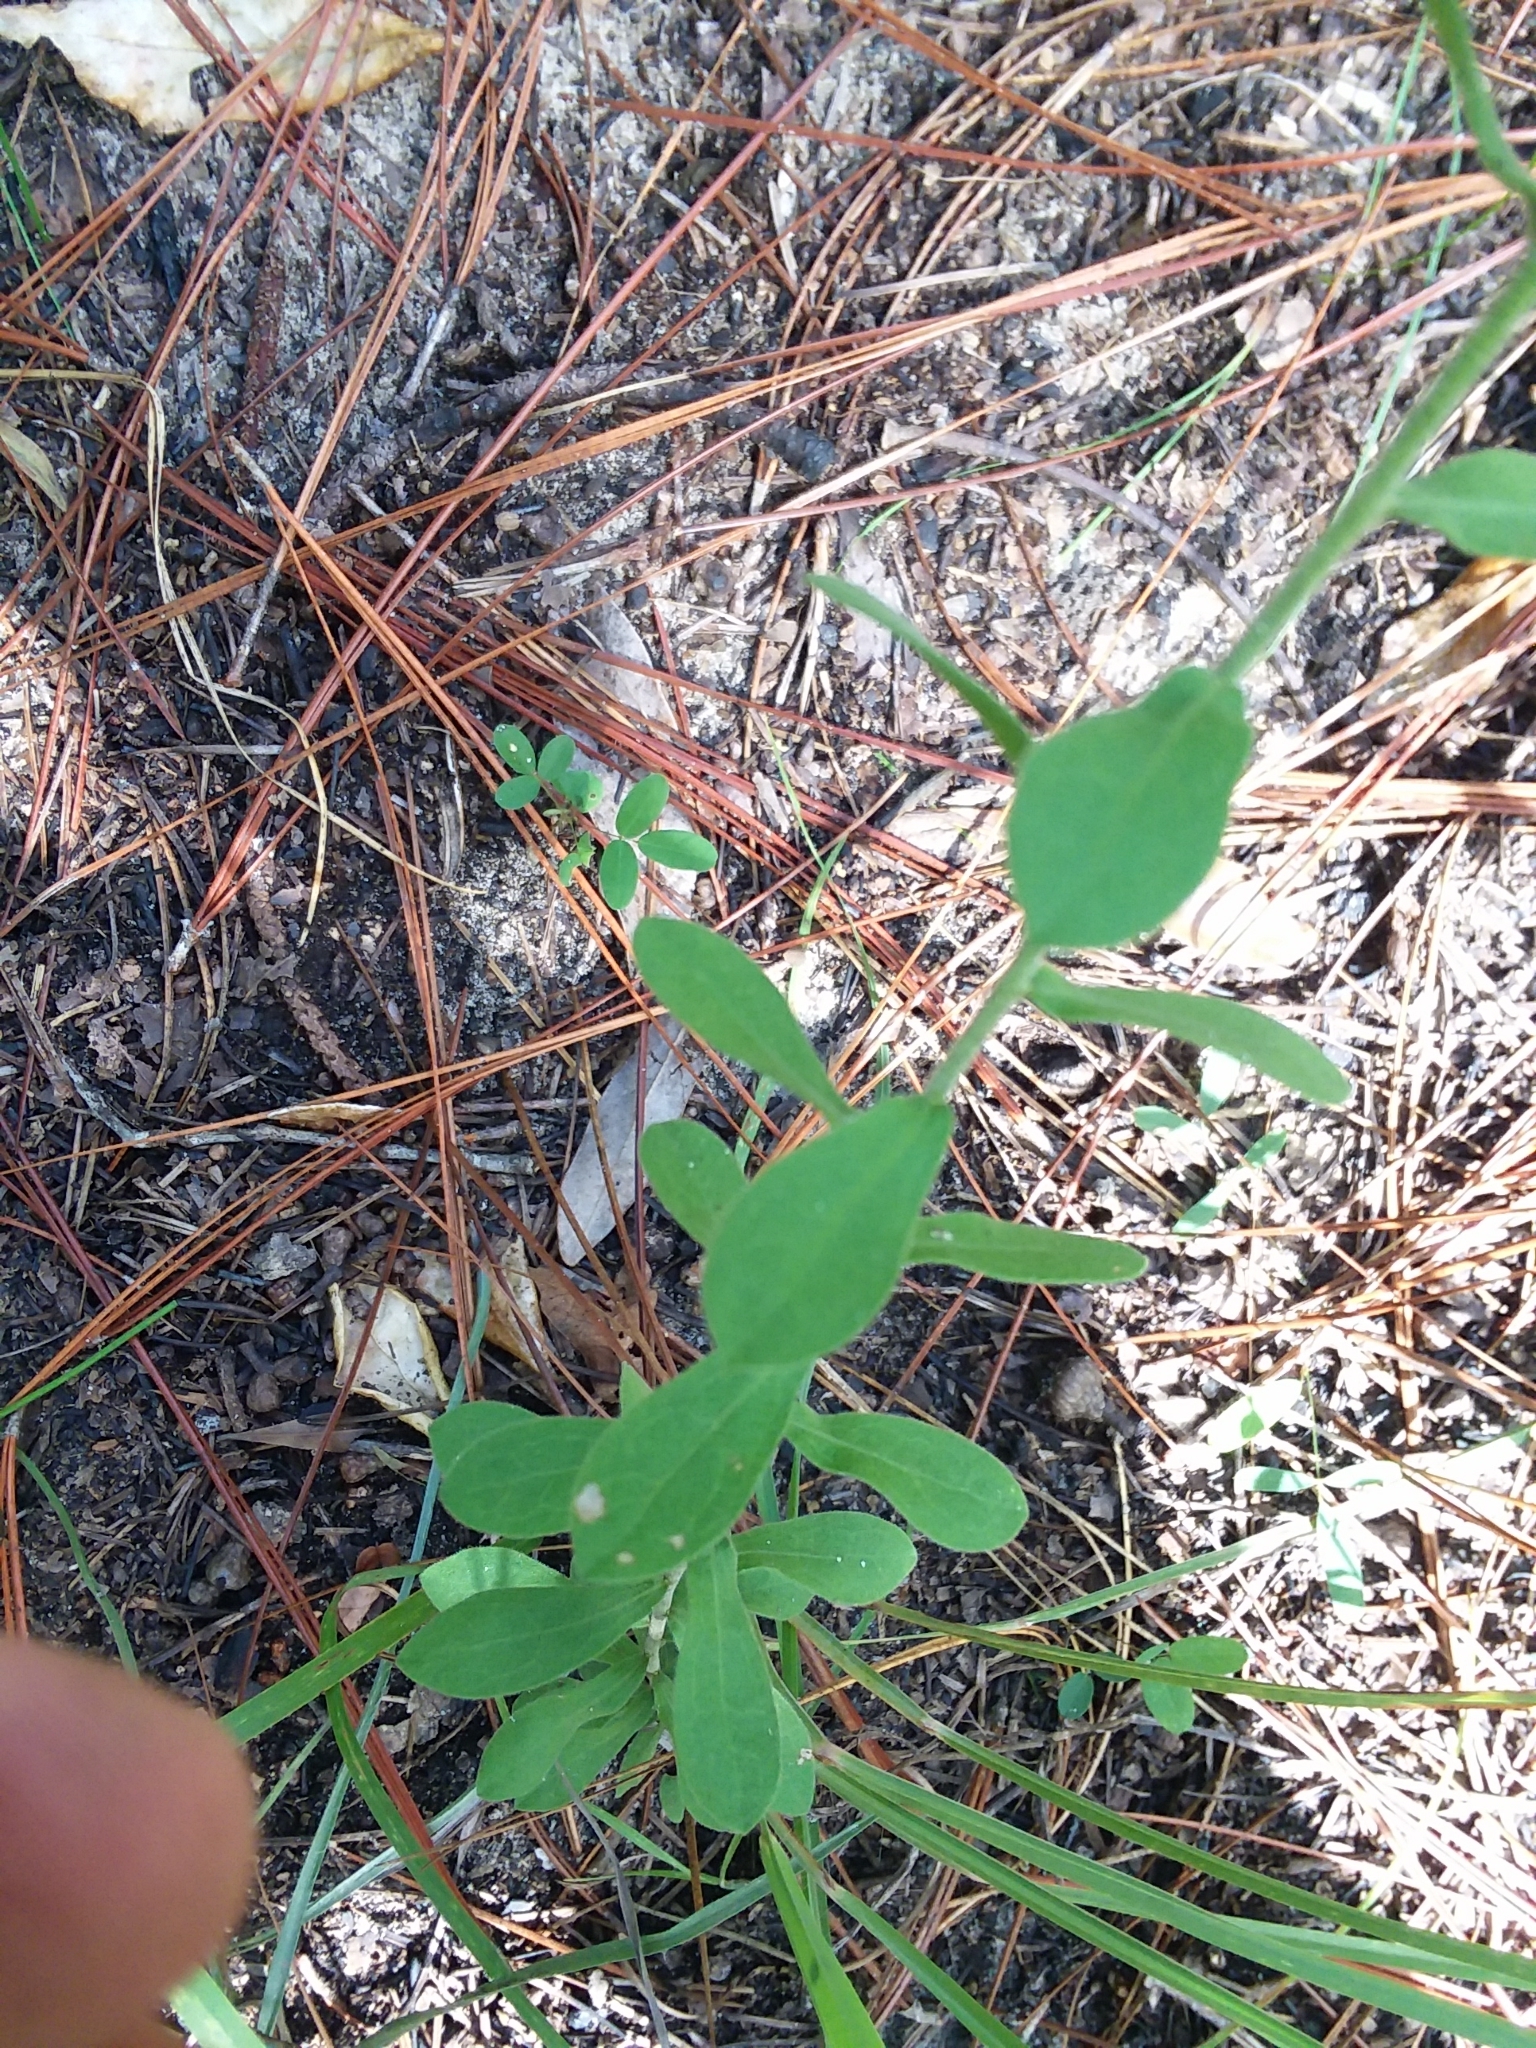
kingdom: Plantae
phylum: Tracheophyta
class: Magnoliopsida
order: Asterales
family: Asteraceae
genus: Sericocarpus
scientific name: Sericocarpus tortifolius
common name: Dixie aster
